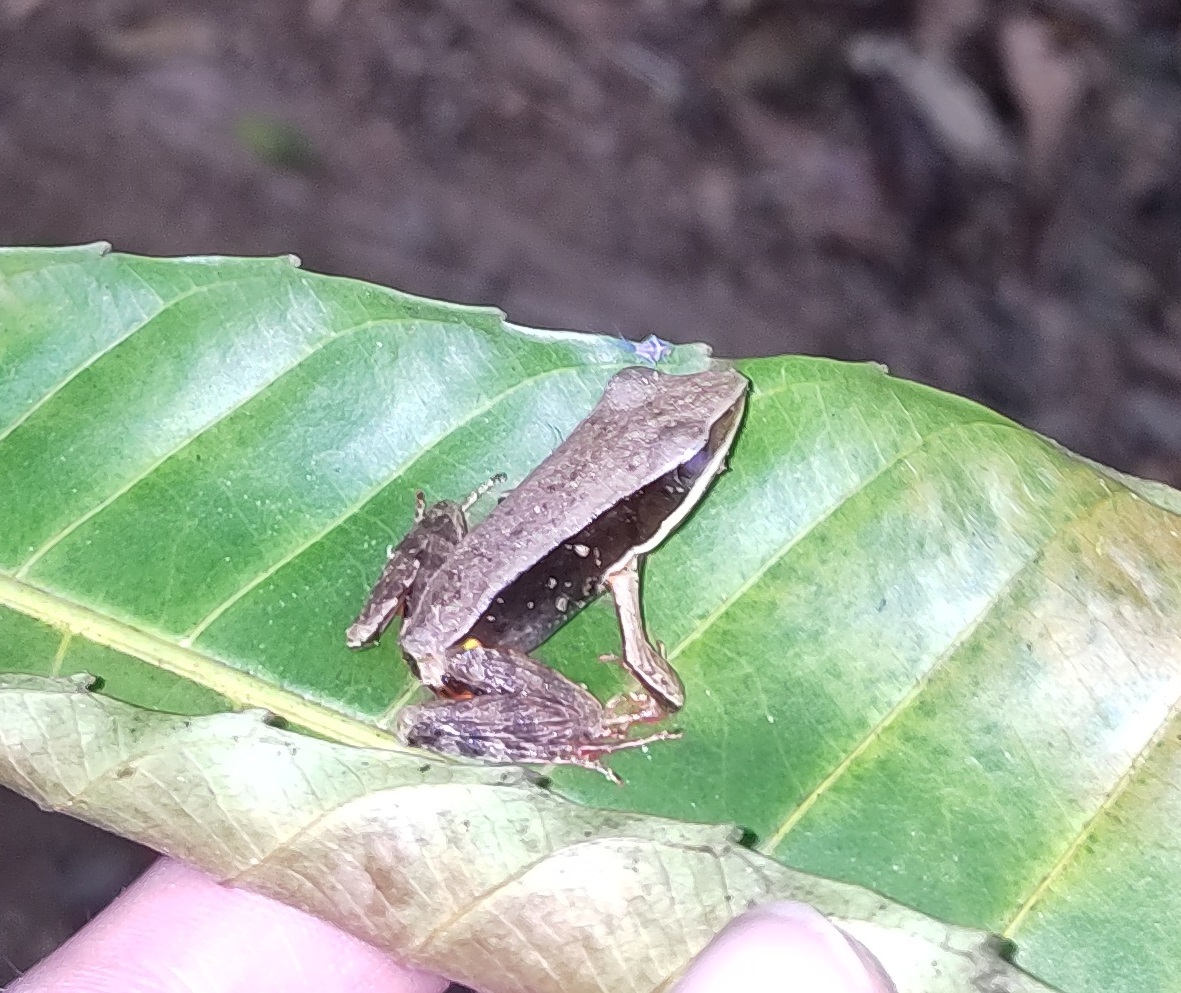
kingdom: Animalia
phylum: Chordata
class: Amphibia
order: Anura
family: Ranidae
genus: Lithobates
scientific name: Lithobates warszewitschii
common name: Warszewitsch's frog
